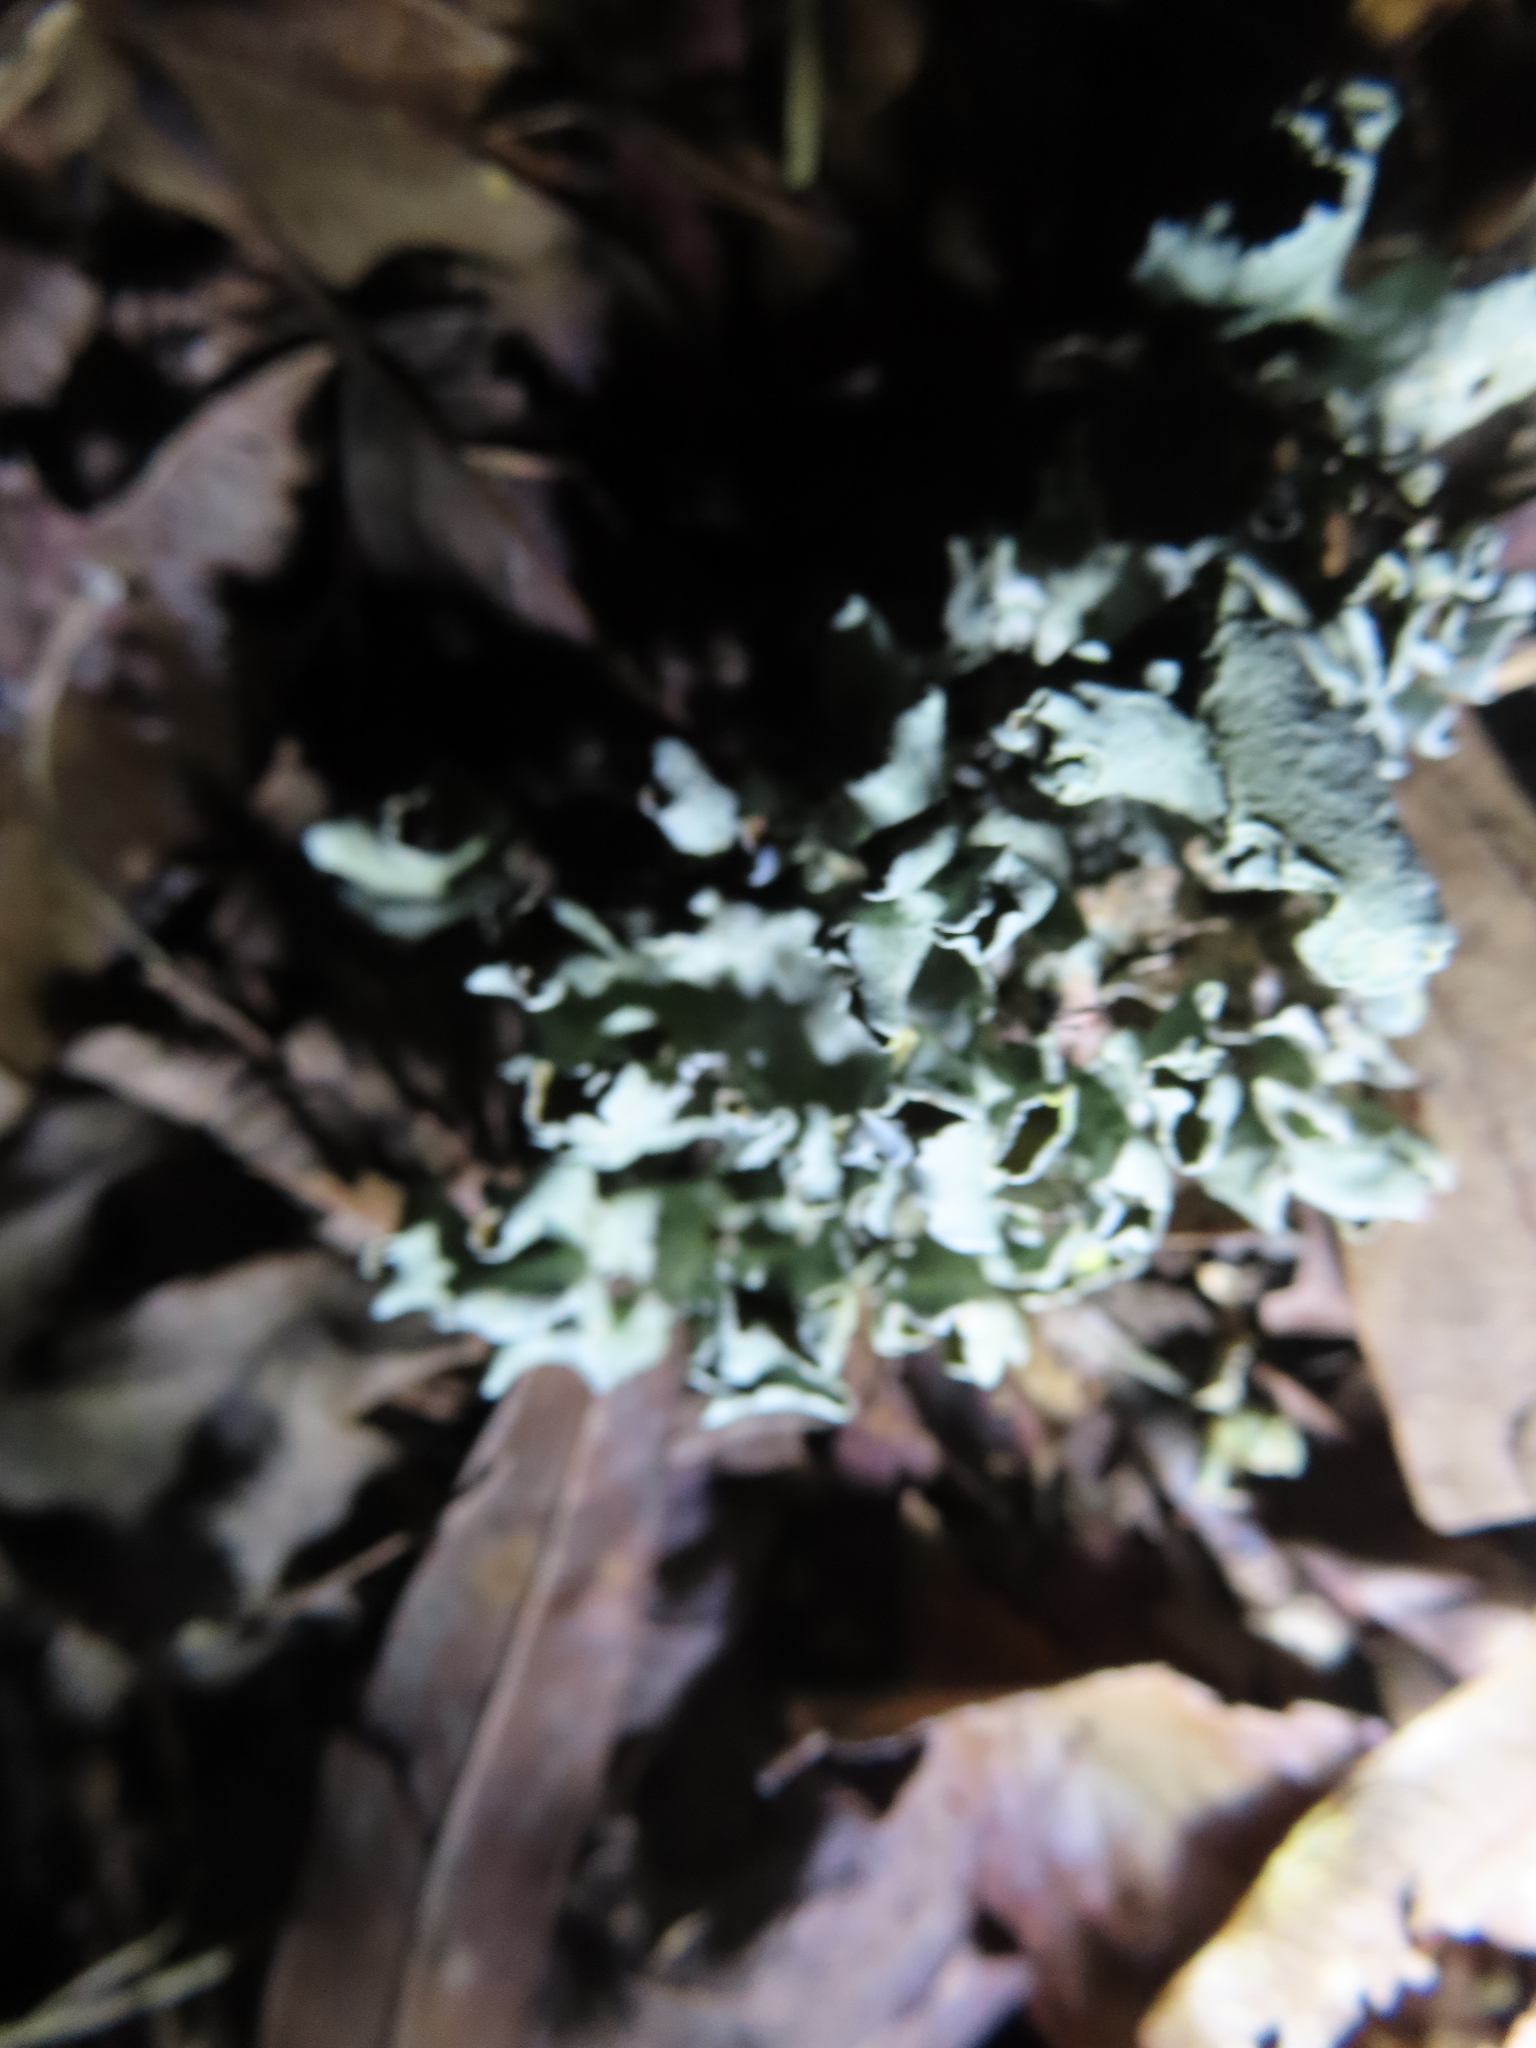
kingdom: Fungi
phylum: Ascomycota
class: Lecanoromycetes
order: Lecanorales
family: Parmeliaceae
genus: Parmotrema
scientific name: Parmotrema perforatum
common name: Perforated ruffle lichen
